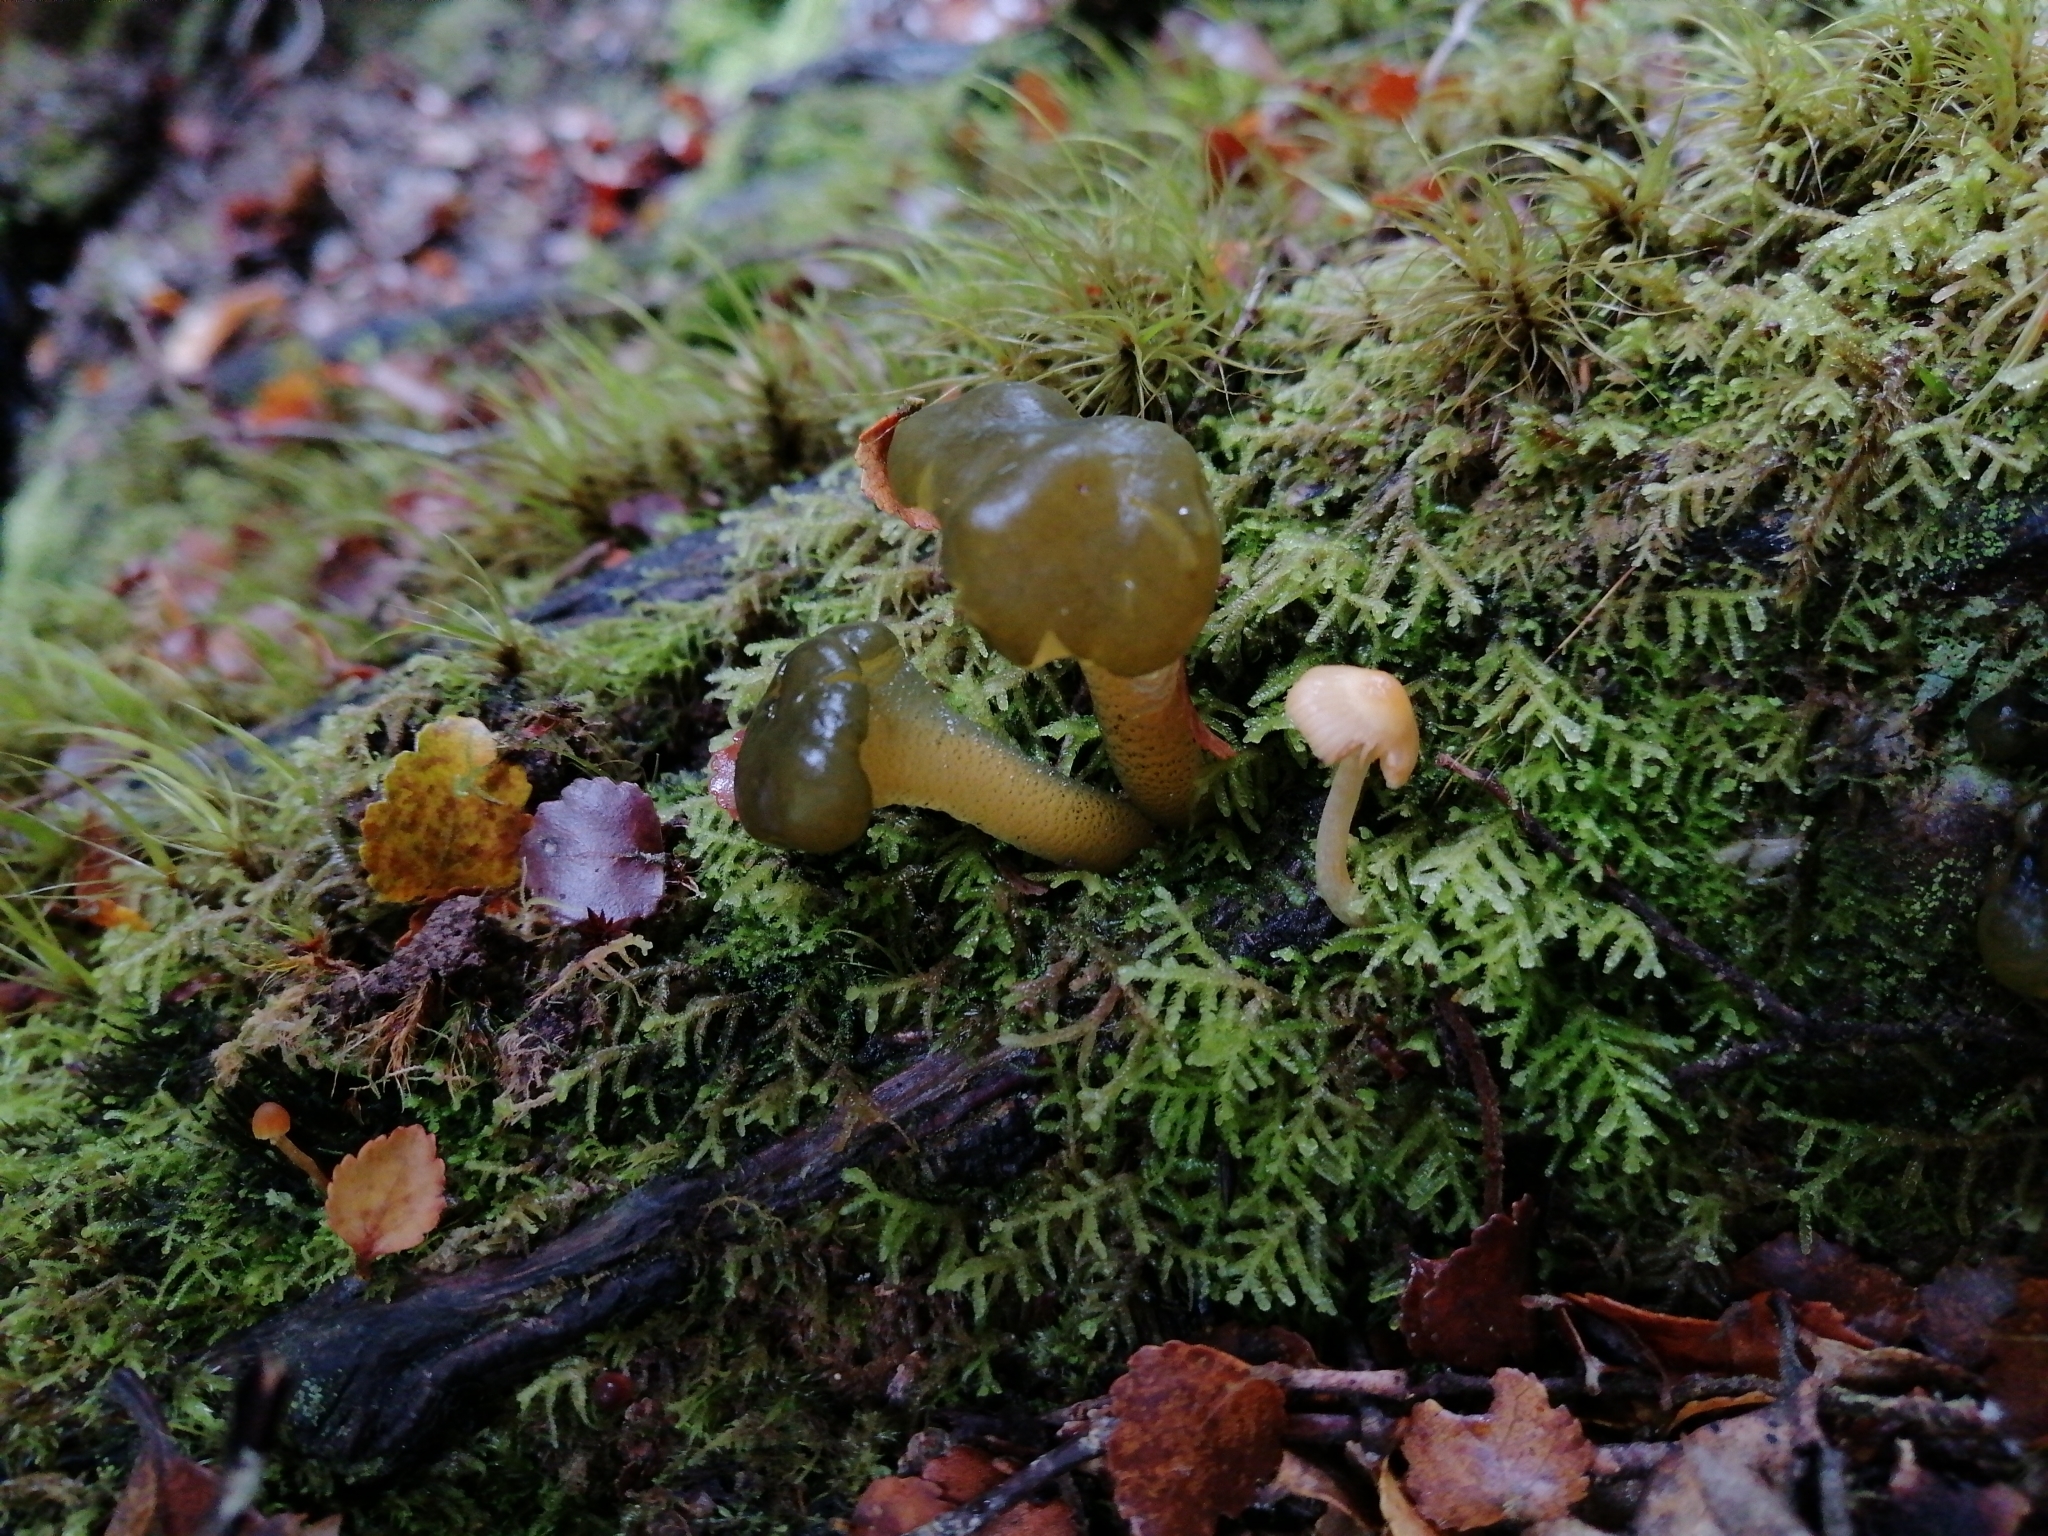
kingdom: Fungi
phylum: Ascomycota
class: Leotiomycetes
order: Leotiales
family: Leotiaceae
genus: Leotia
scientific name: Leotia lubrica
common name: Jellybaby
